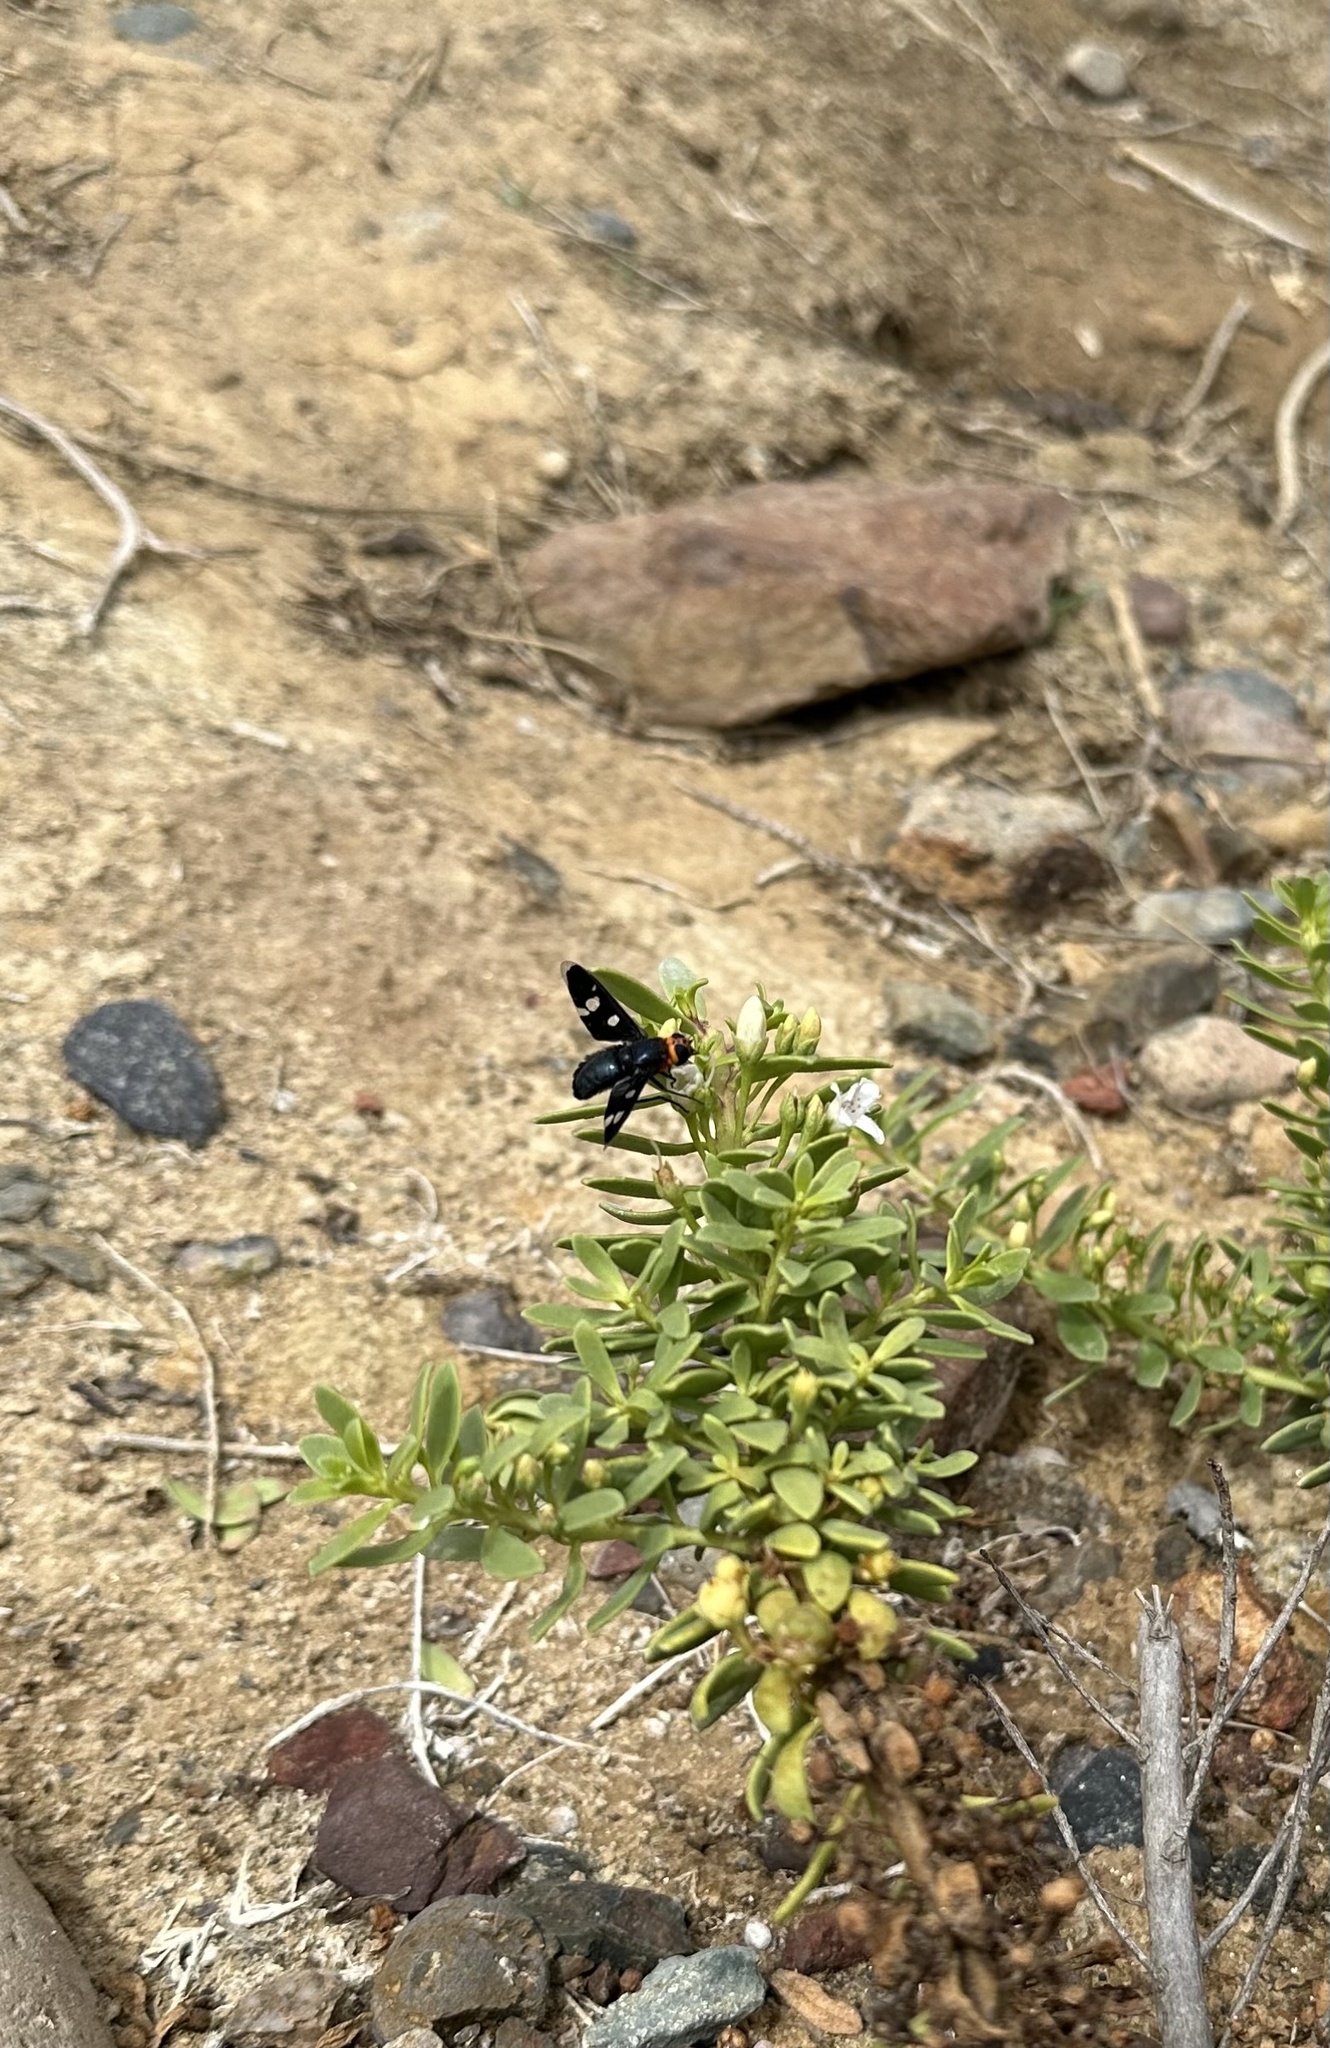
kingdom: Animalia
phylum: Arthropoda
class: Insecta
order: Diptera
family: Bombyliidae
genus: Hyperalonia
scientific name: Hyperalonia morio
